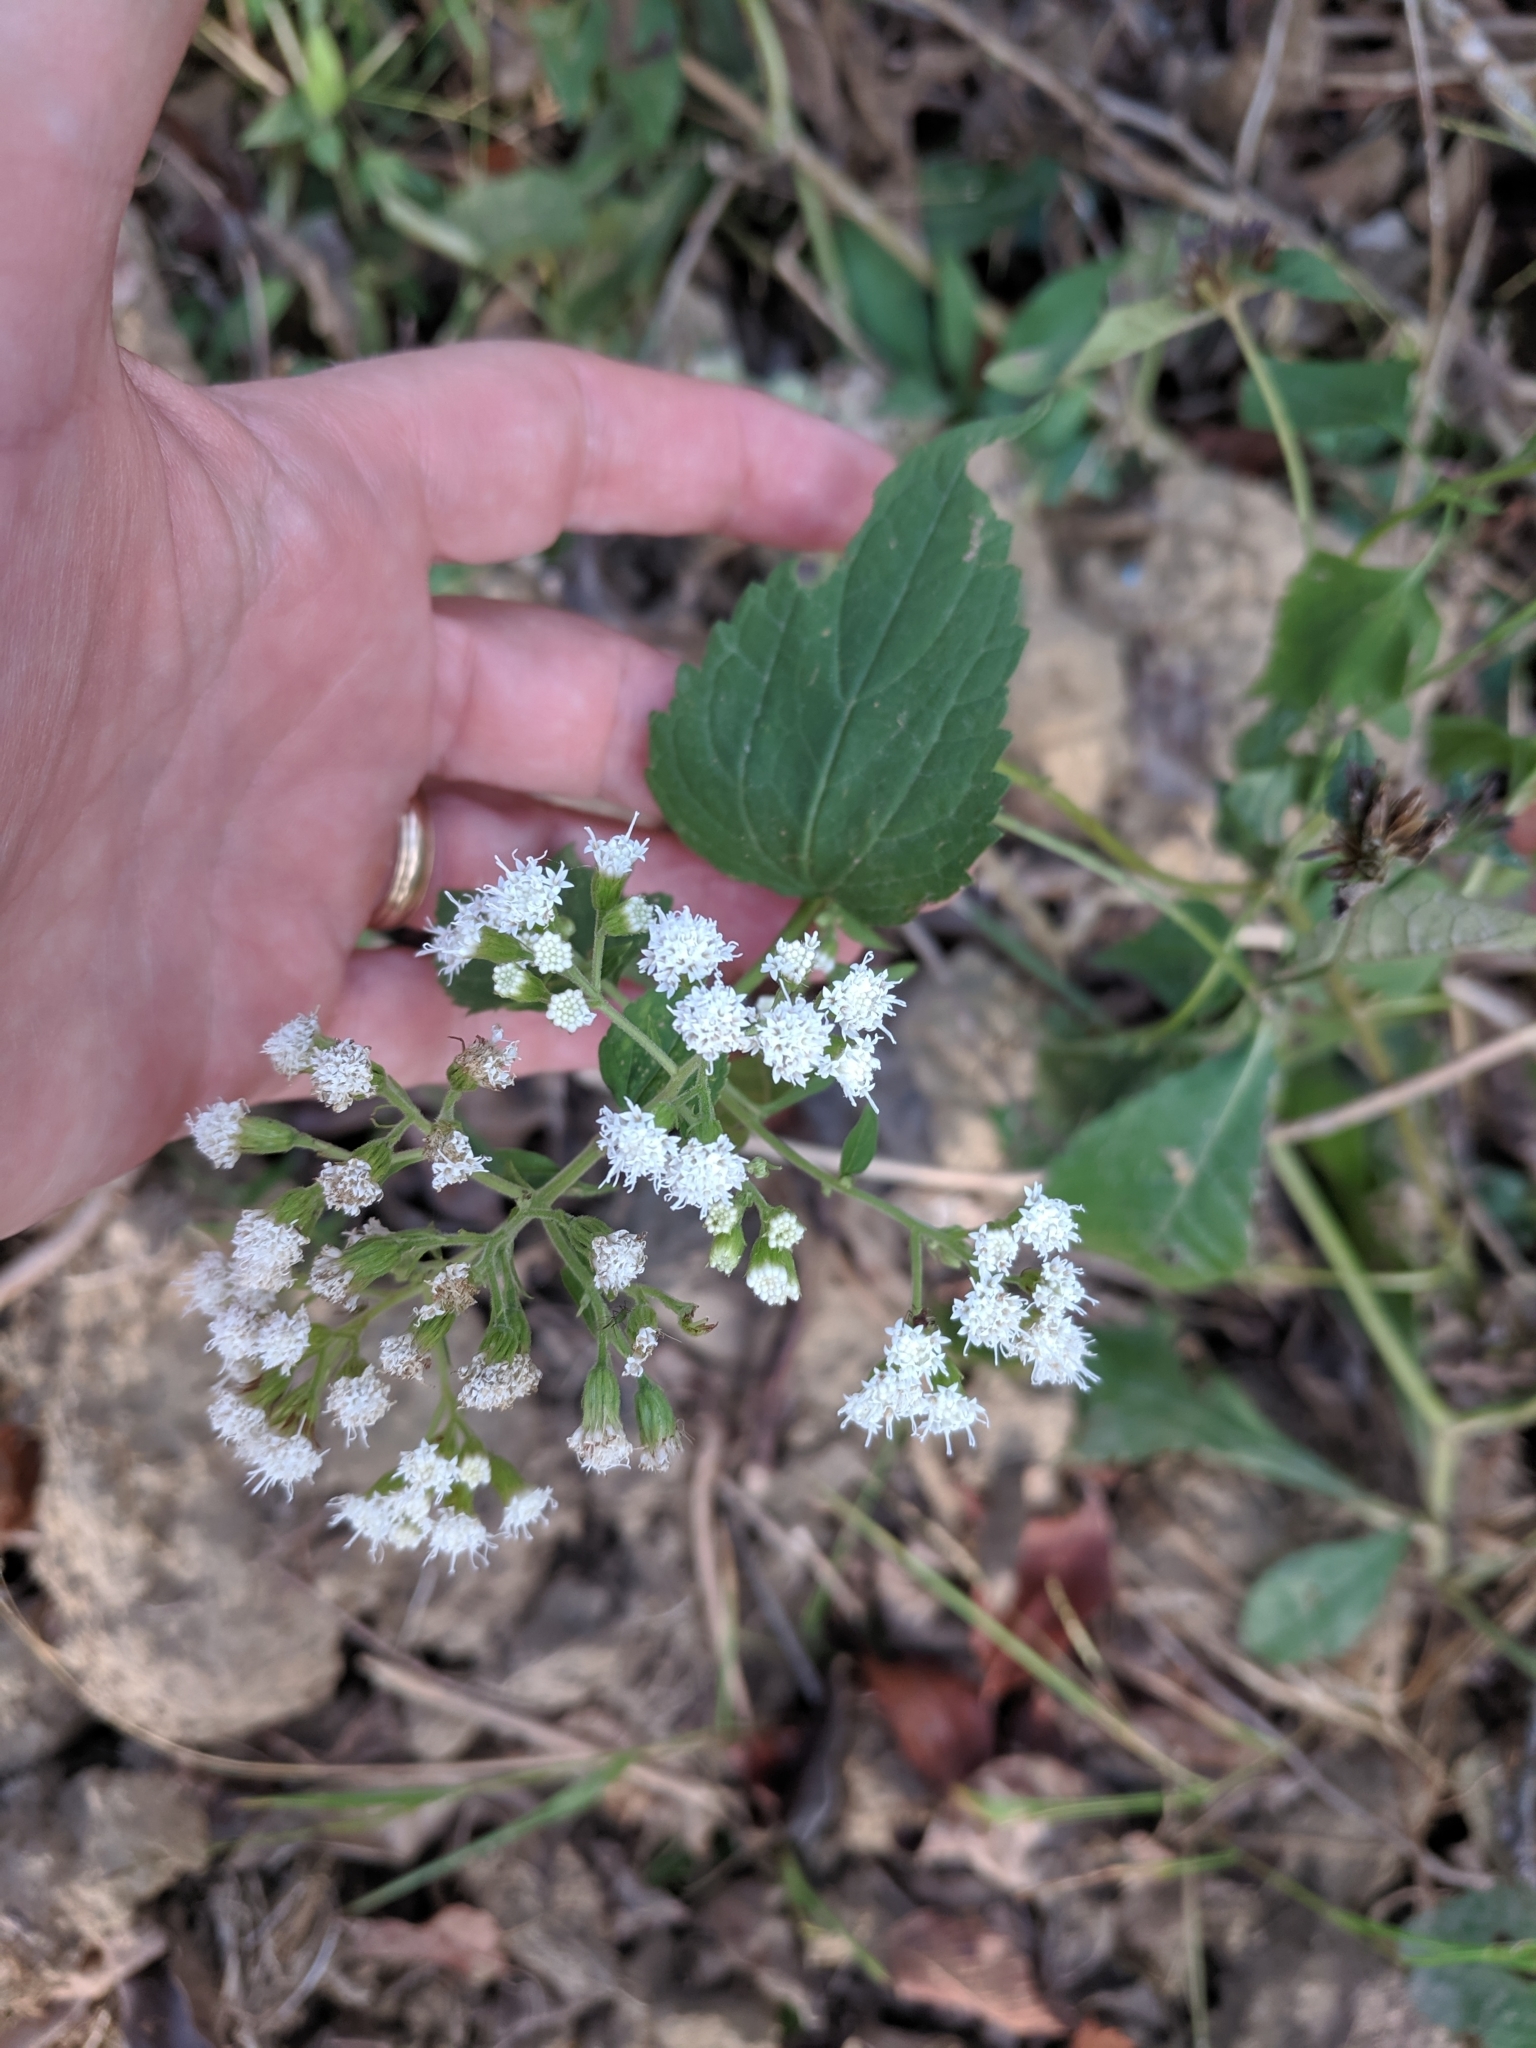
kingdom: Plantae
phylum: Tracheophyta
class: Magnoliopsida
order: Asterales
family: Asteraceae
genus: Ageratina
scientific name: Ageratina altissima
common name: White snakeroot
